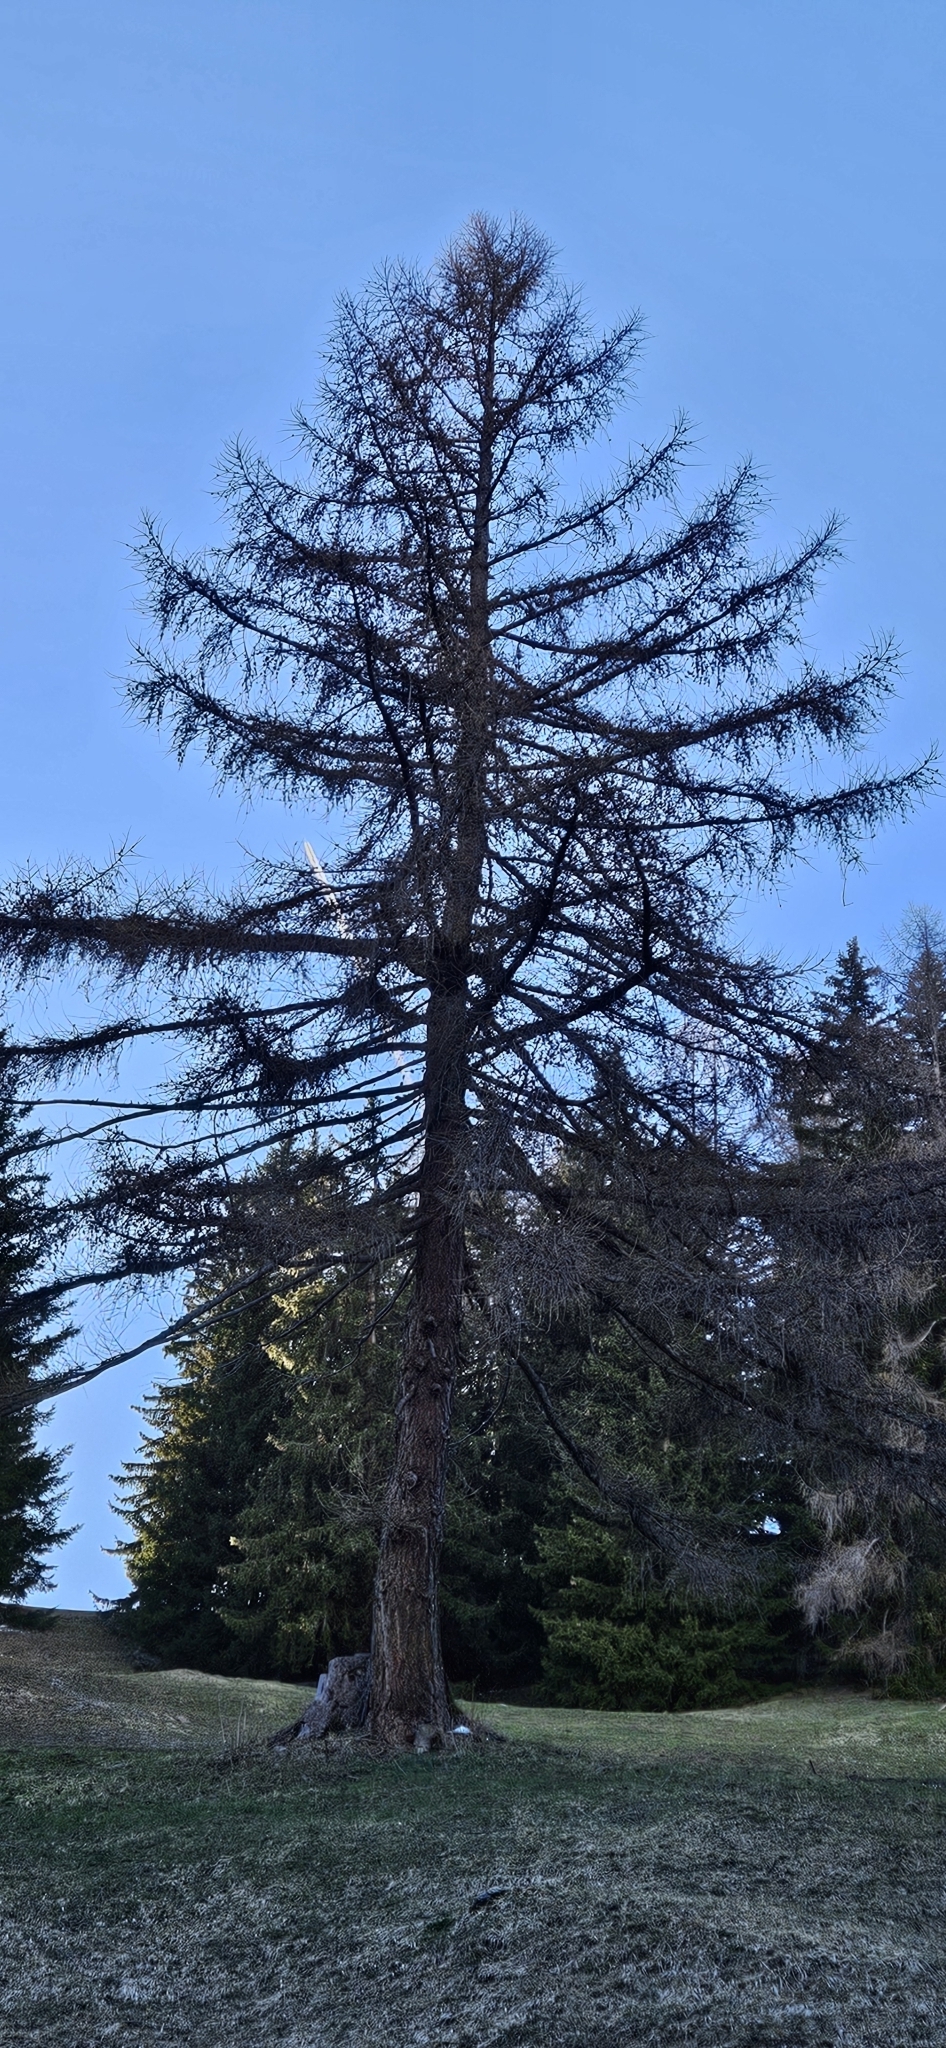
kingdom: Plantae
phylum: Tracheophyta
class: Pinopsida
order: Pinales
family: Pinaceae
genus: Larix
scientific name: Larix decidua
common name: European larch
